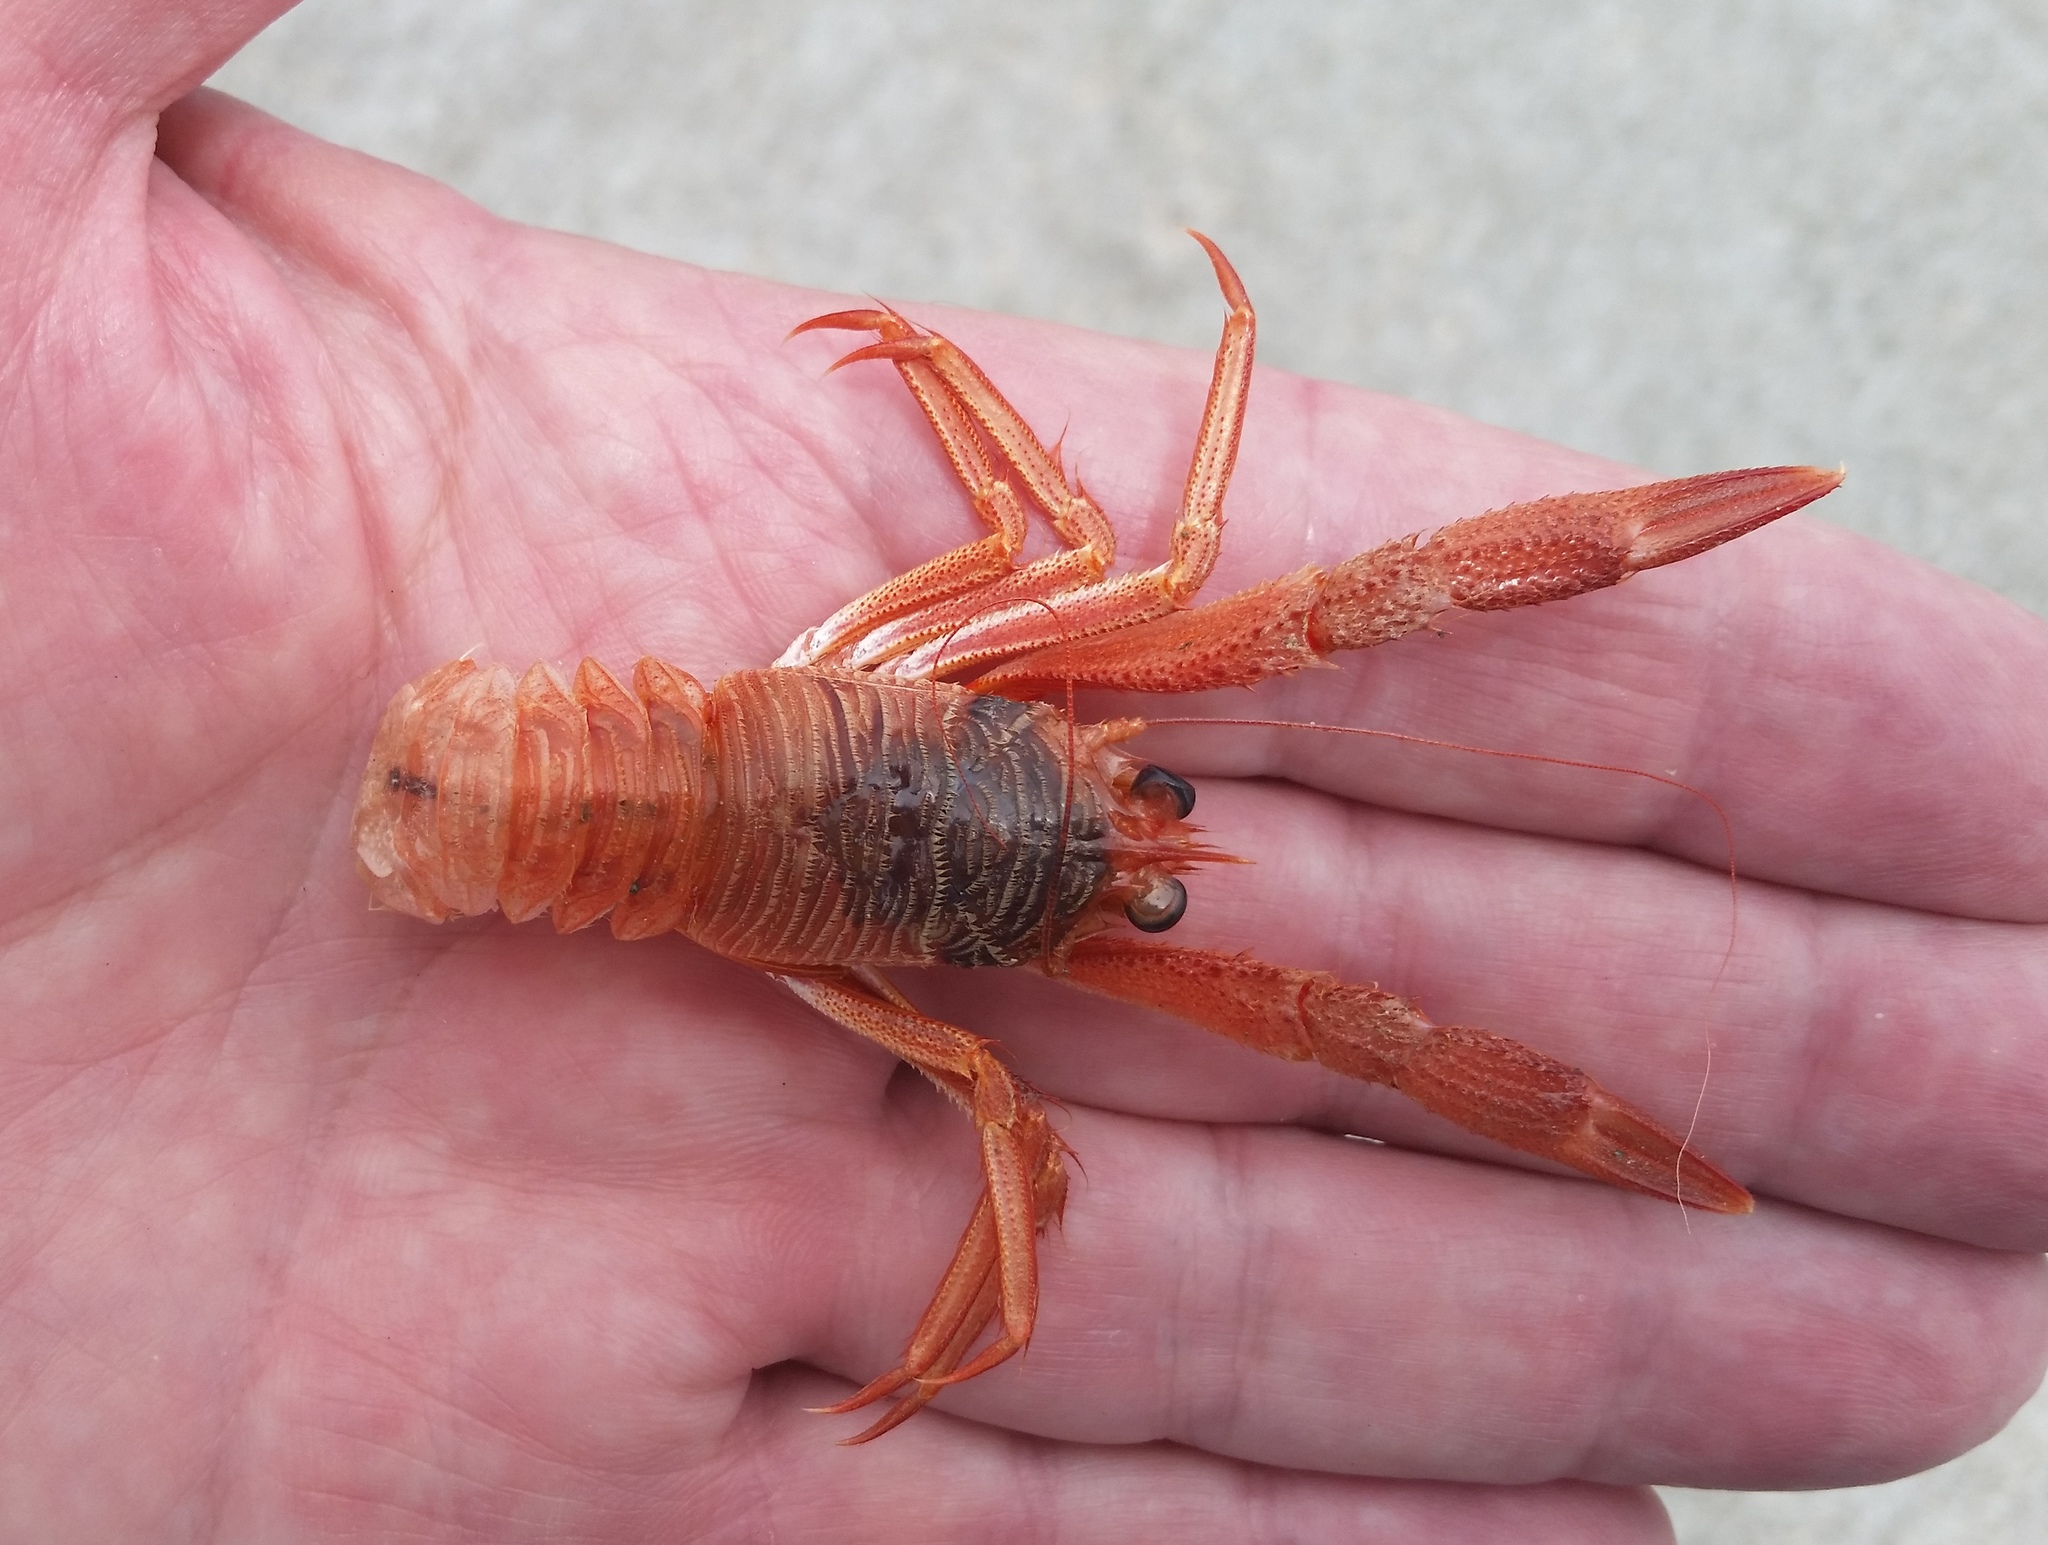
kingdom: Animalia
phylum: Arthropoda
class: Malacostraca
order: Decapoda
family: Munididae
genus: Grimothea
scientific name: Grimothea planipes
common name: Pelagic red crab
